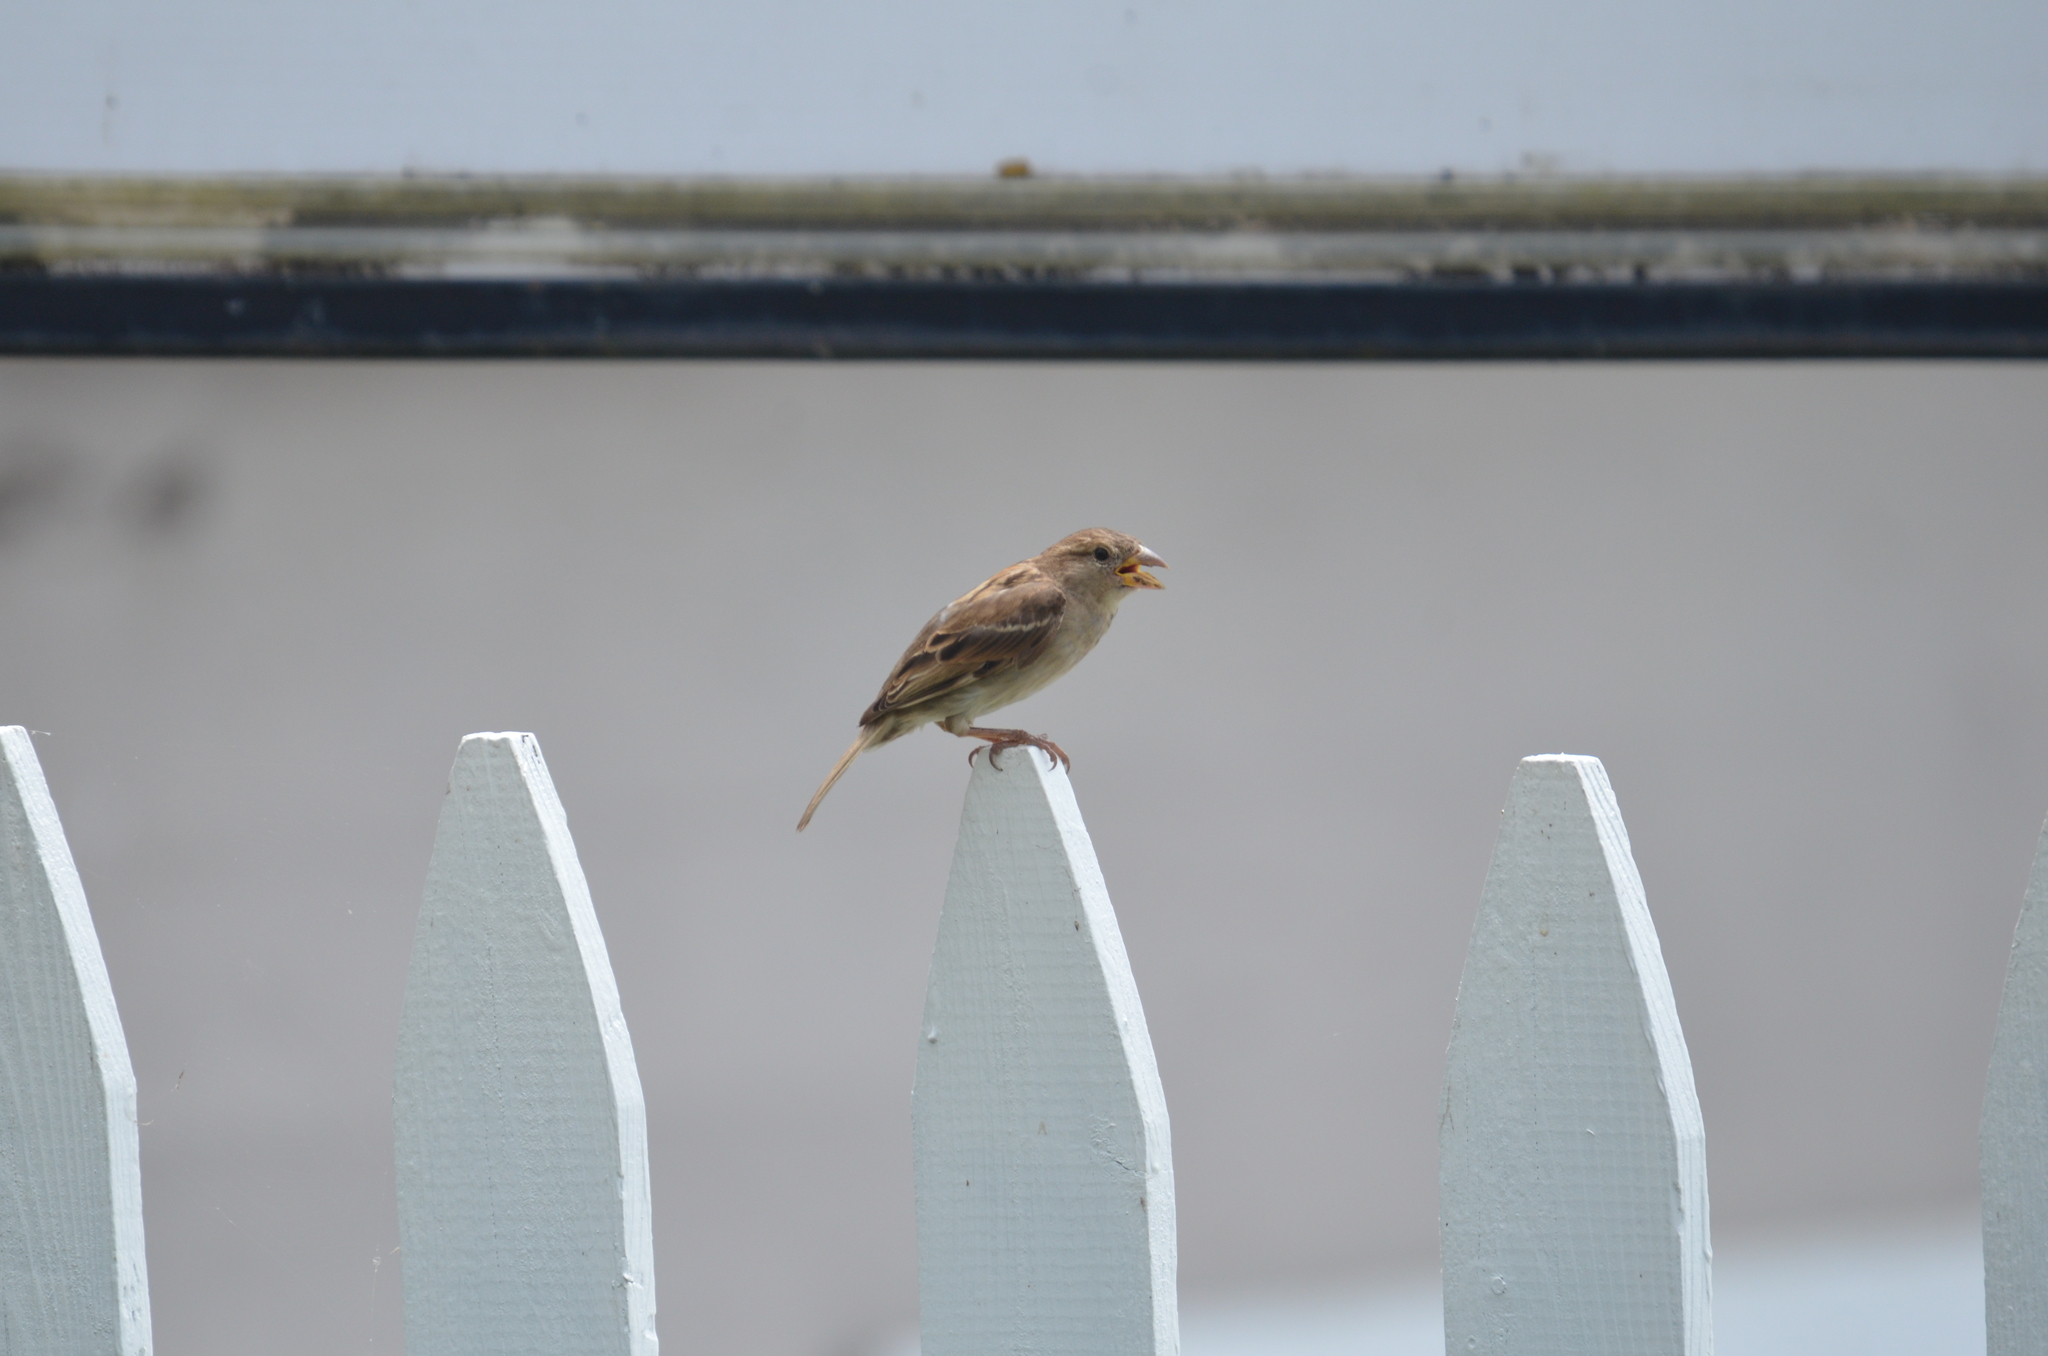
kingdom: Animalia
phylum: Chordata
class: Aves
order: Passeriformes
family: Passeridae
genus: Passer
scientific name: Passer domesticus
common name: House sparrow
